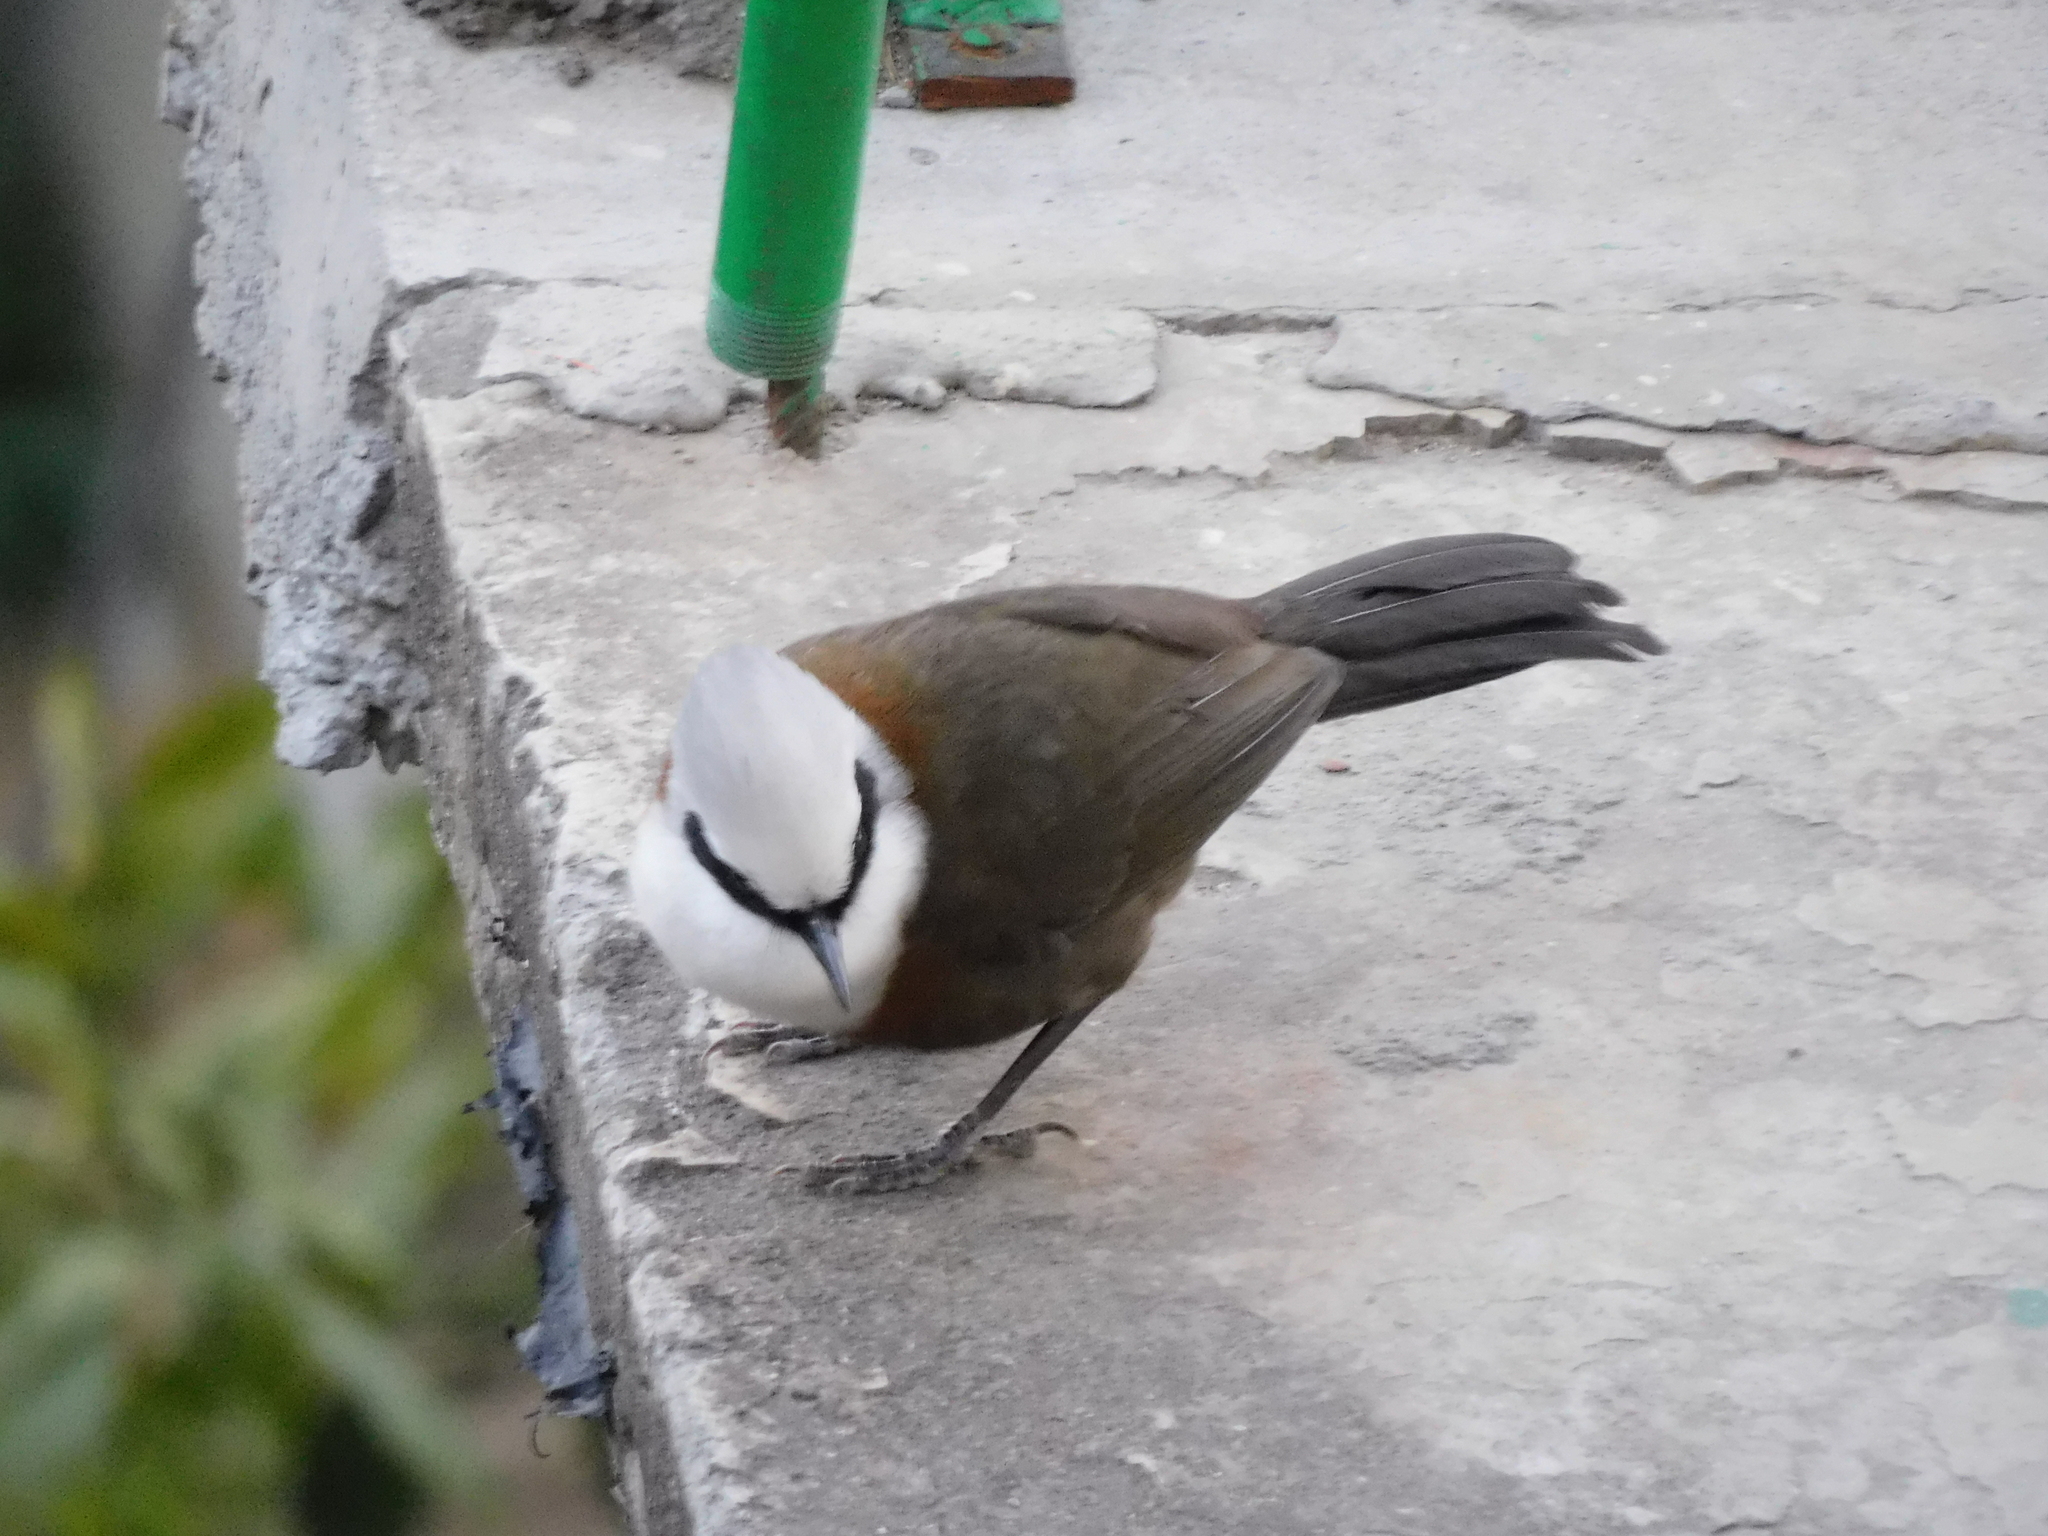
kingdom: Animalia
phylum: Chordata
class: Aves
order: Passeriformes
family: Leiothrichidae
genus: Garrulax
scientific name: Garrulax leucolophus
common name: White-crested laughingthrush
